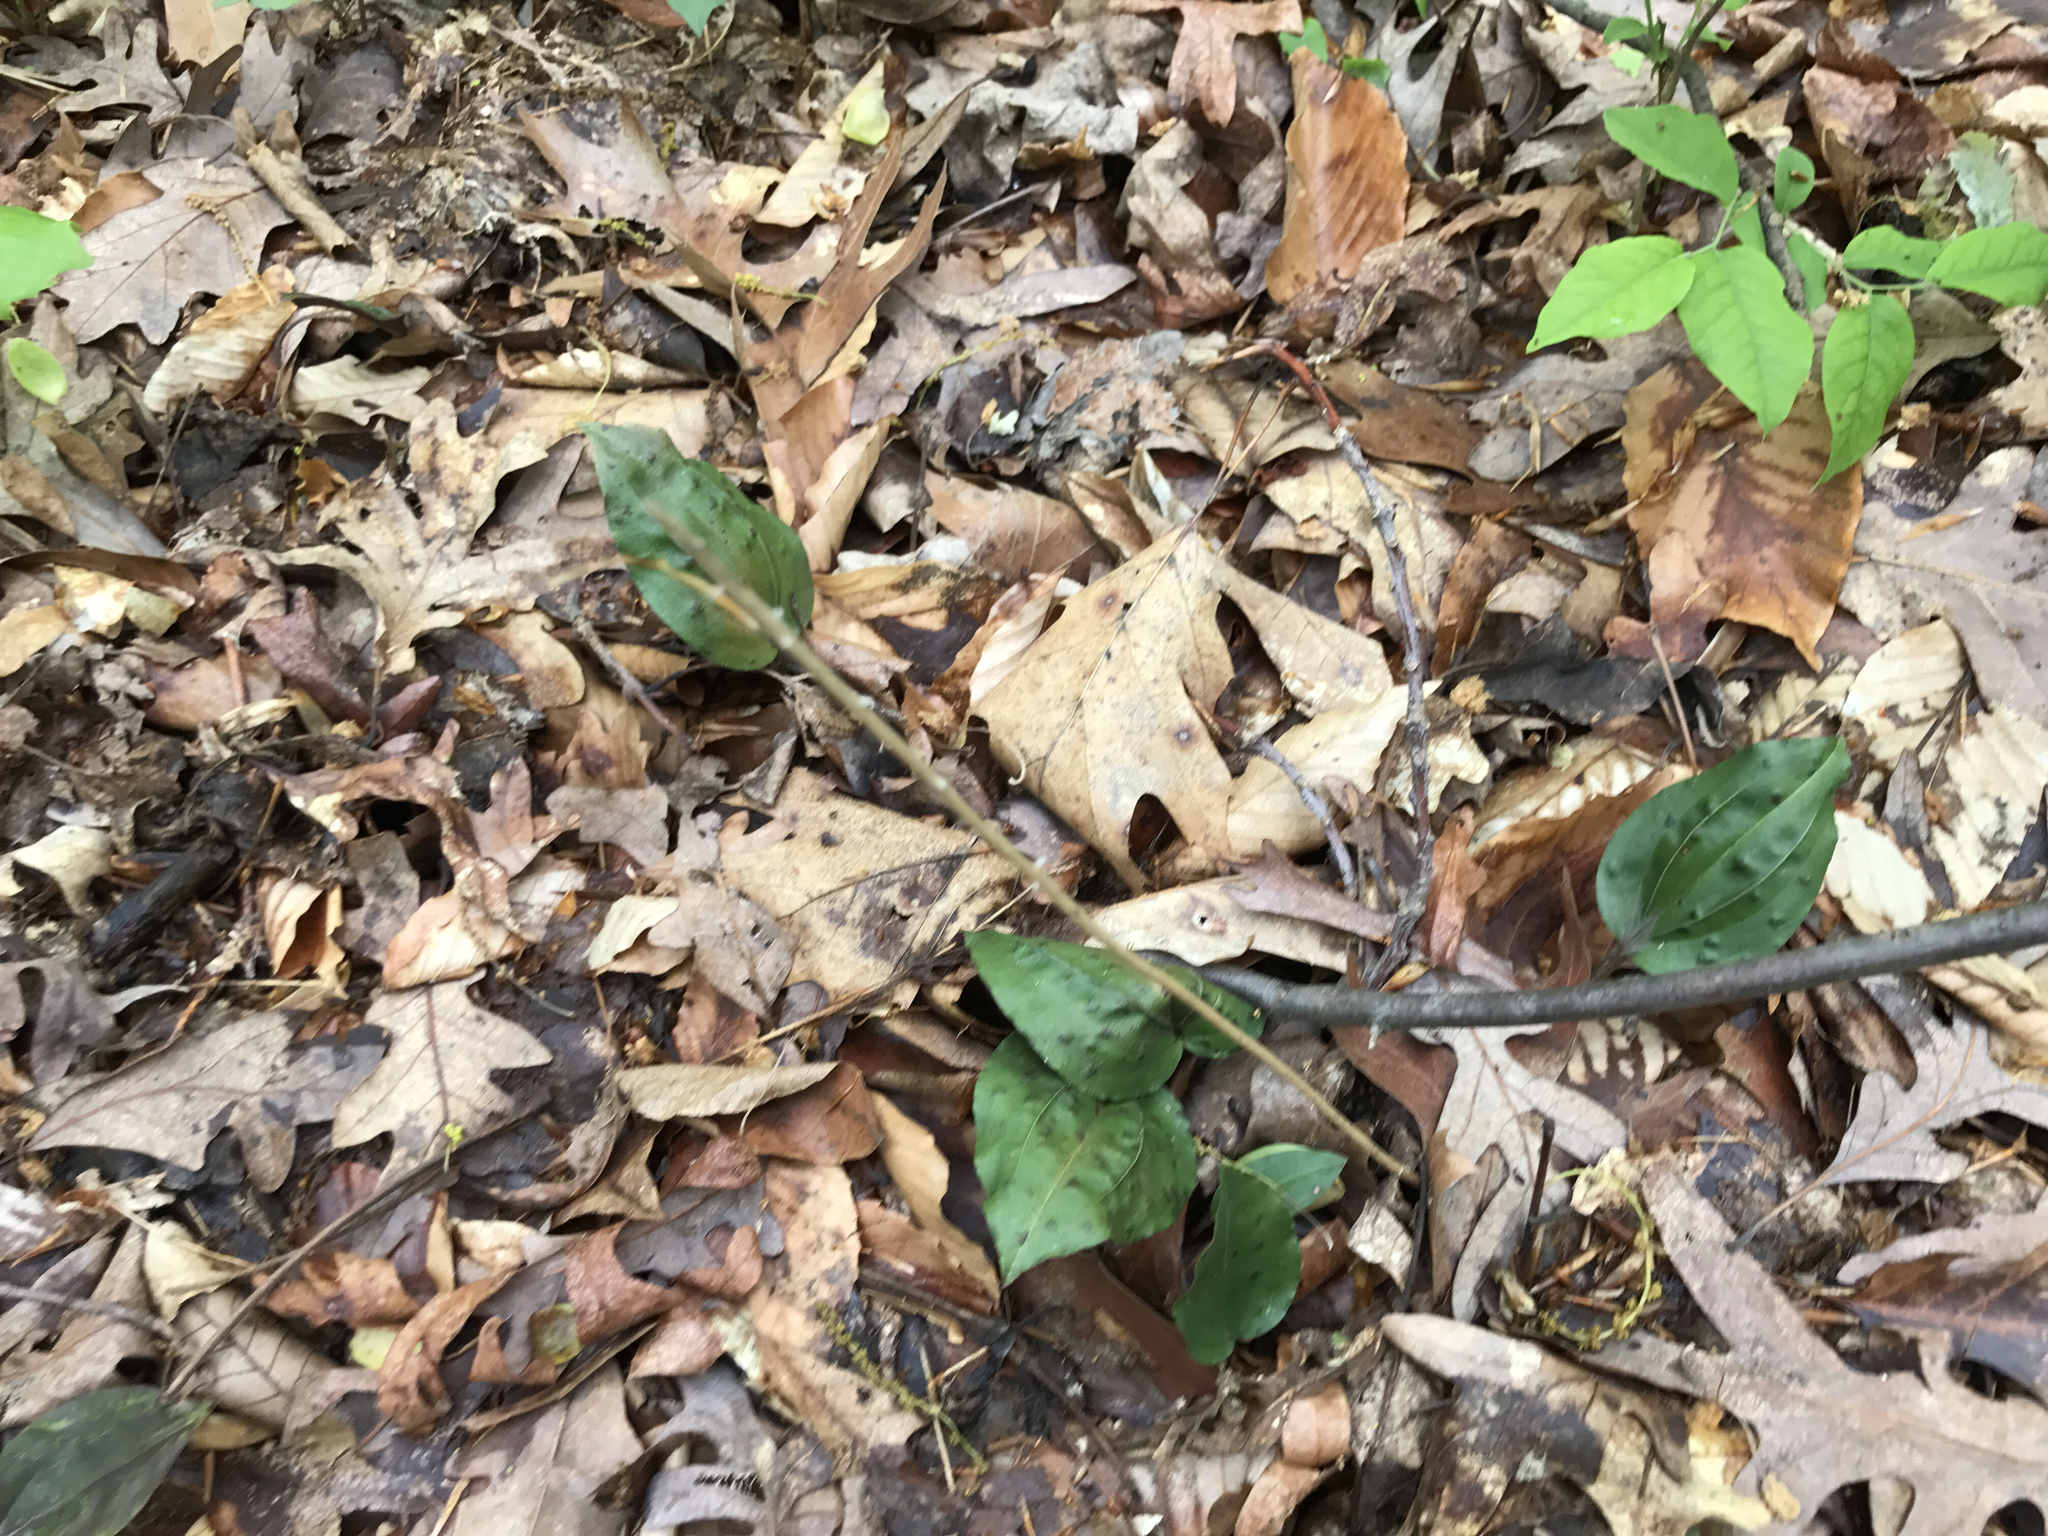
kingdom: Plantae
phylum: Tracheophyta
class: Liliopsida
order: Asparagales
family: Orchidaceae
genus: Tipularia
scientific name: Tipularia discolor
